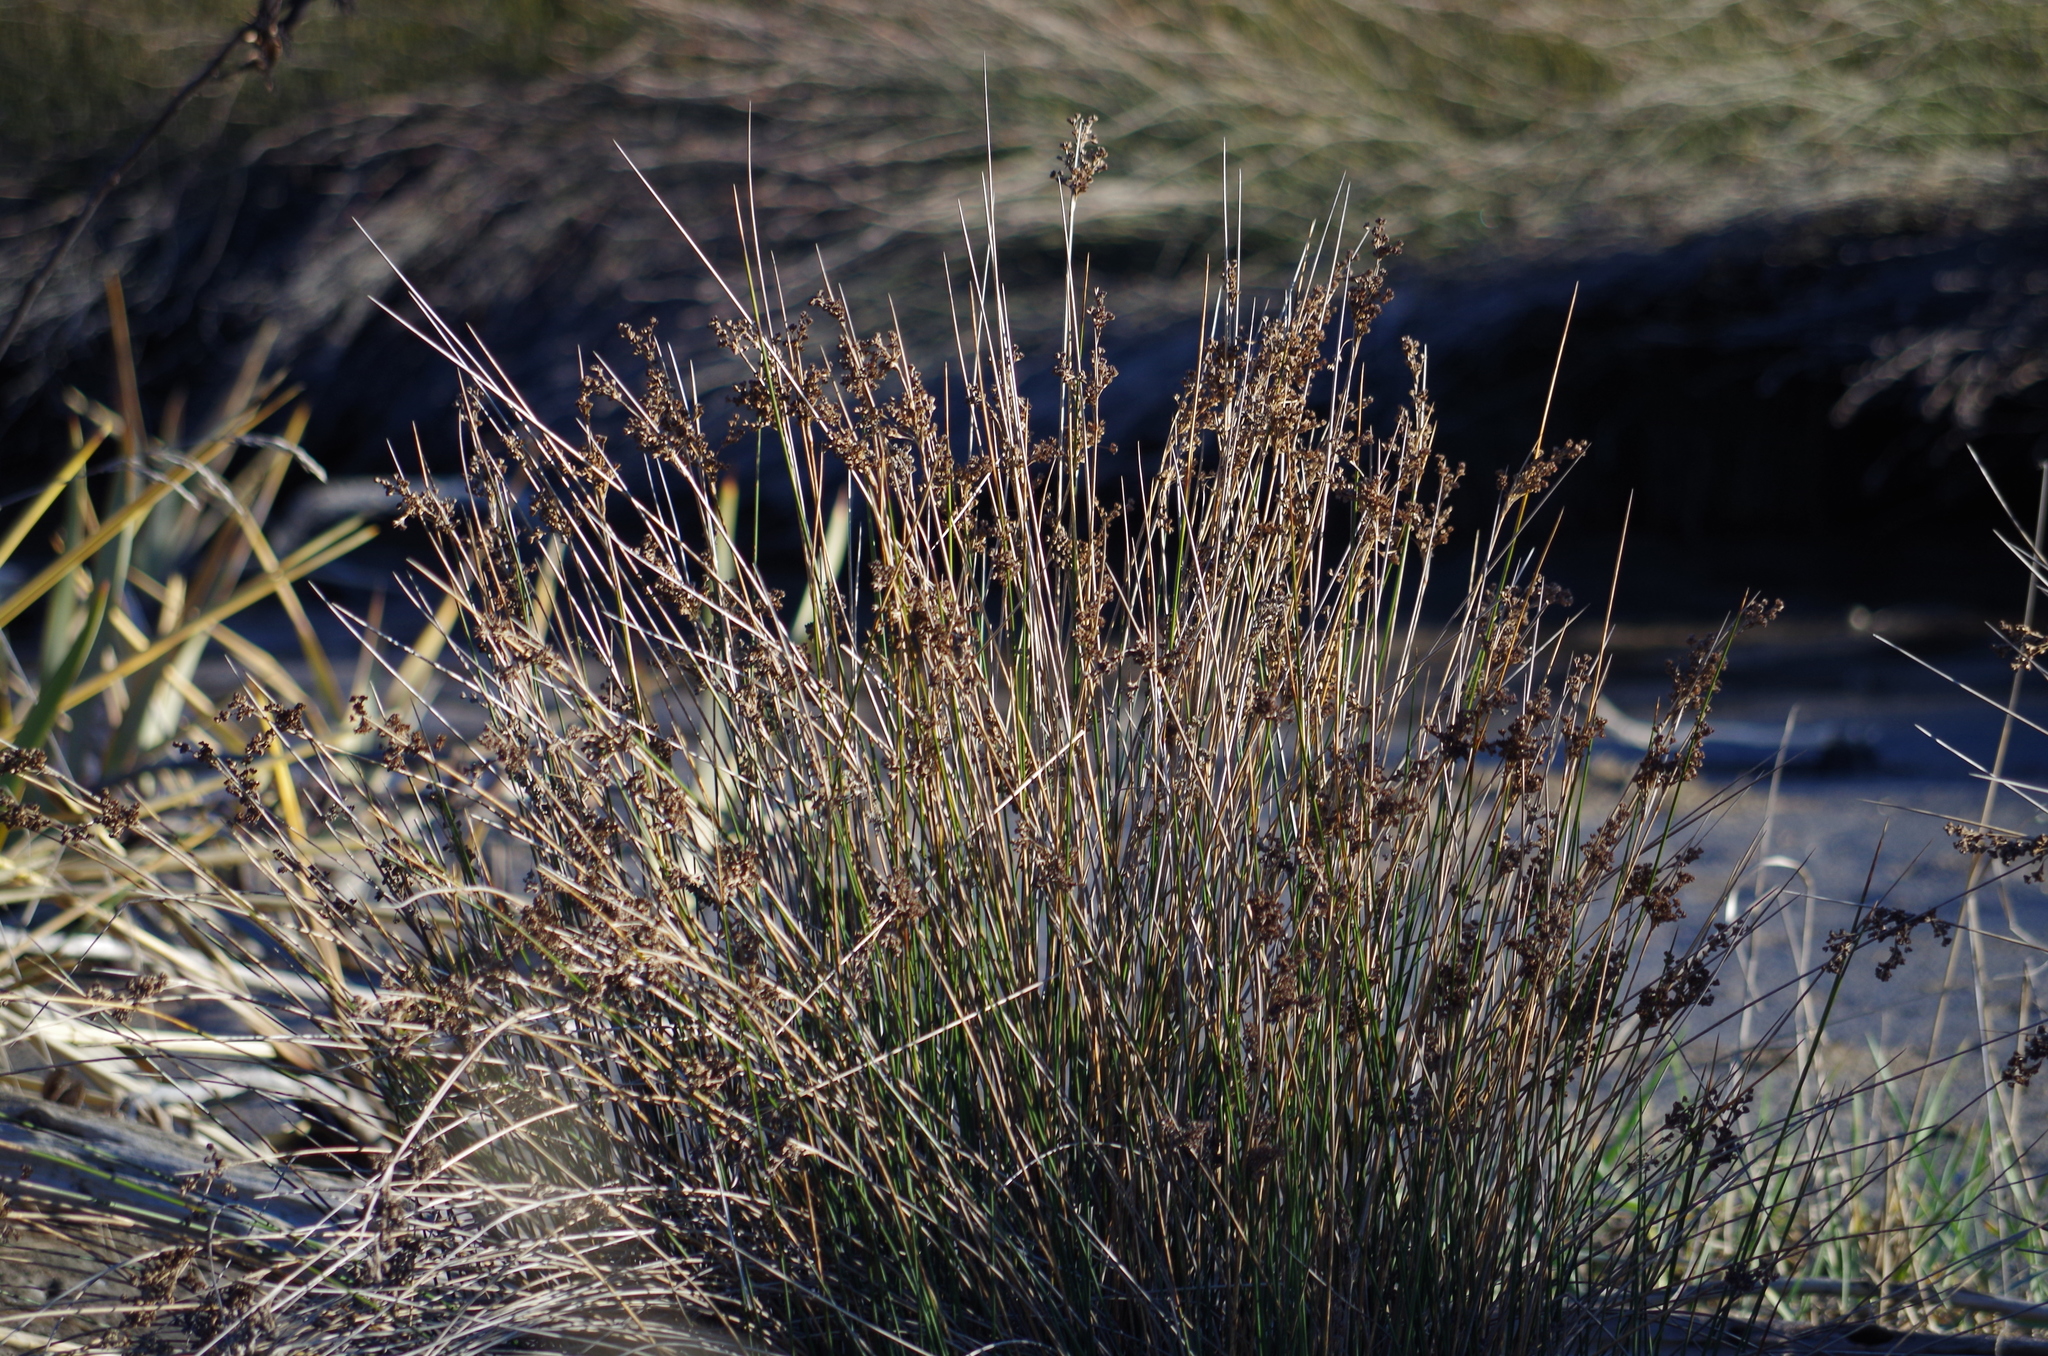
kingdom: Plantae
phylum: Tracheophyta
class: Liliopsida
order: Poales
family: Juncaceae
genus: Juncus
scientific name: Juncus kraussii
